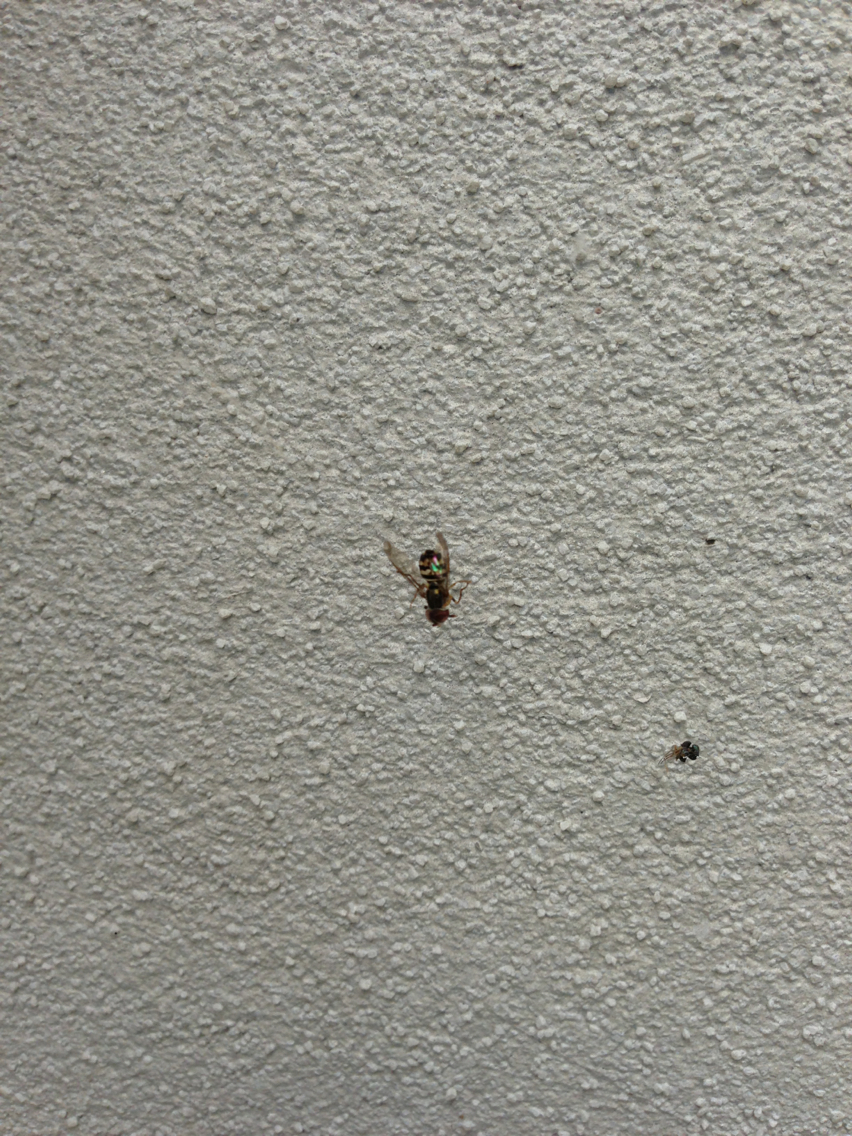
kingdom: Animalia
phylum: Arthropoda
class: Insecta
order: Diptera
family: Syrphidae
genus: Toxomerus
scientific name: Toxomerus geminatus
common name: Eastern calligrapher
